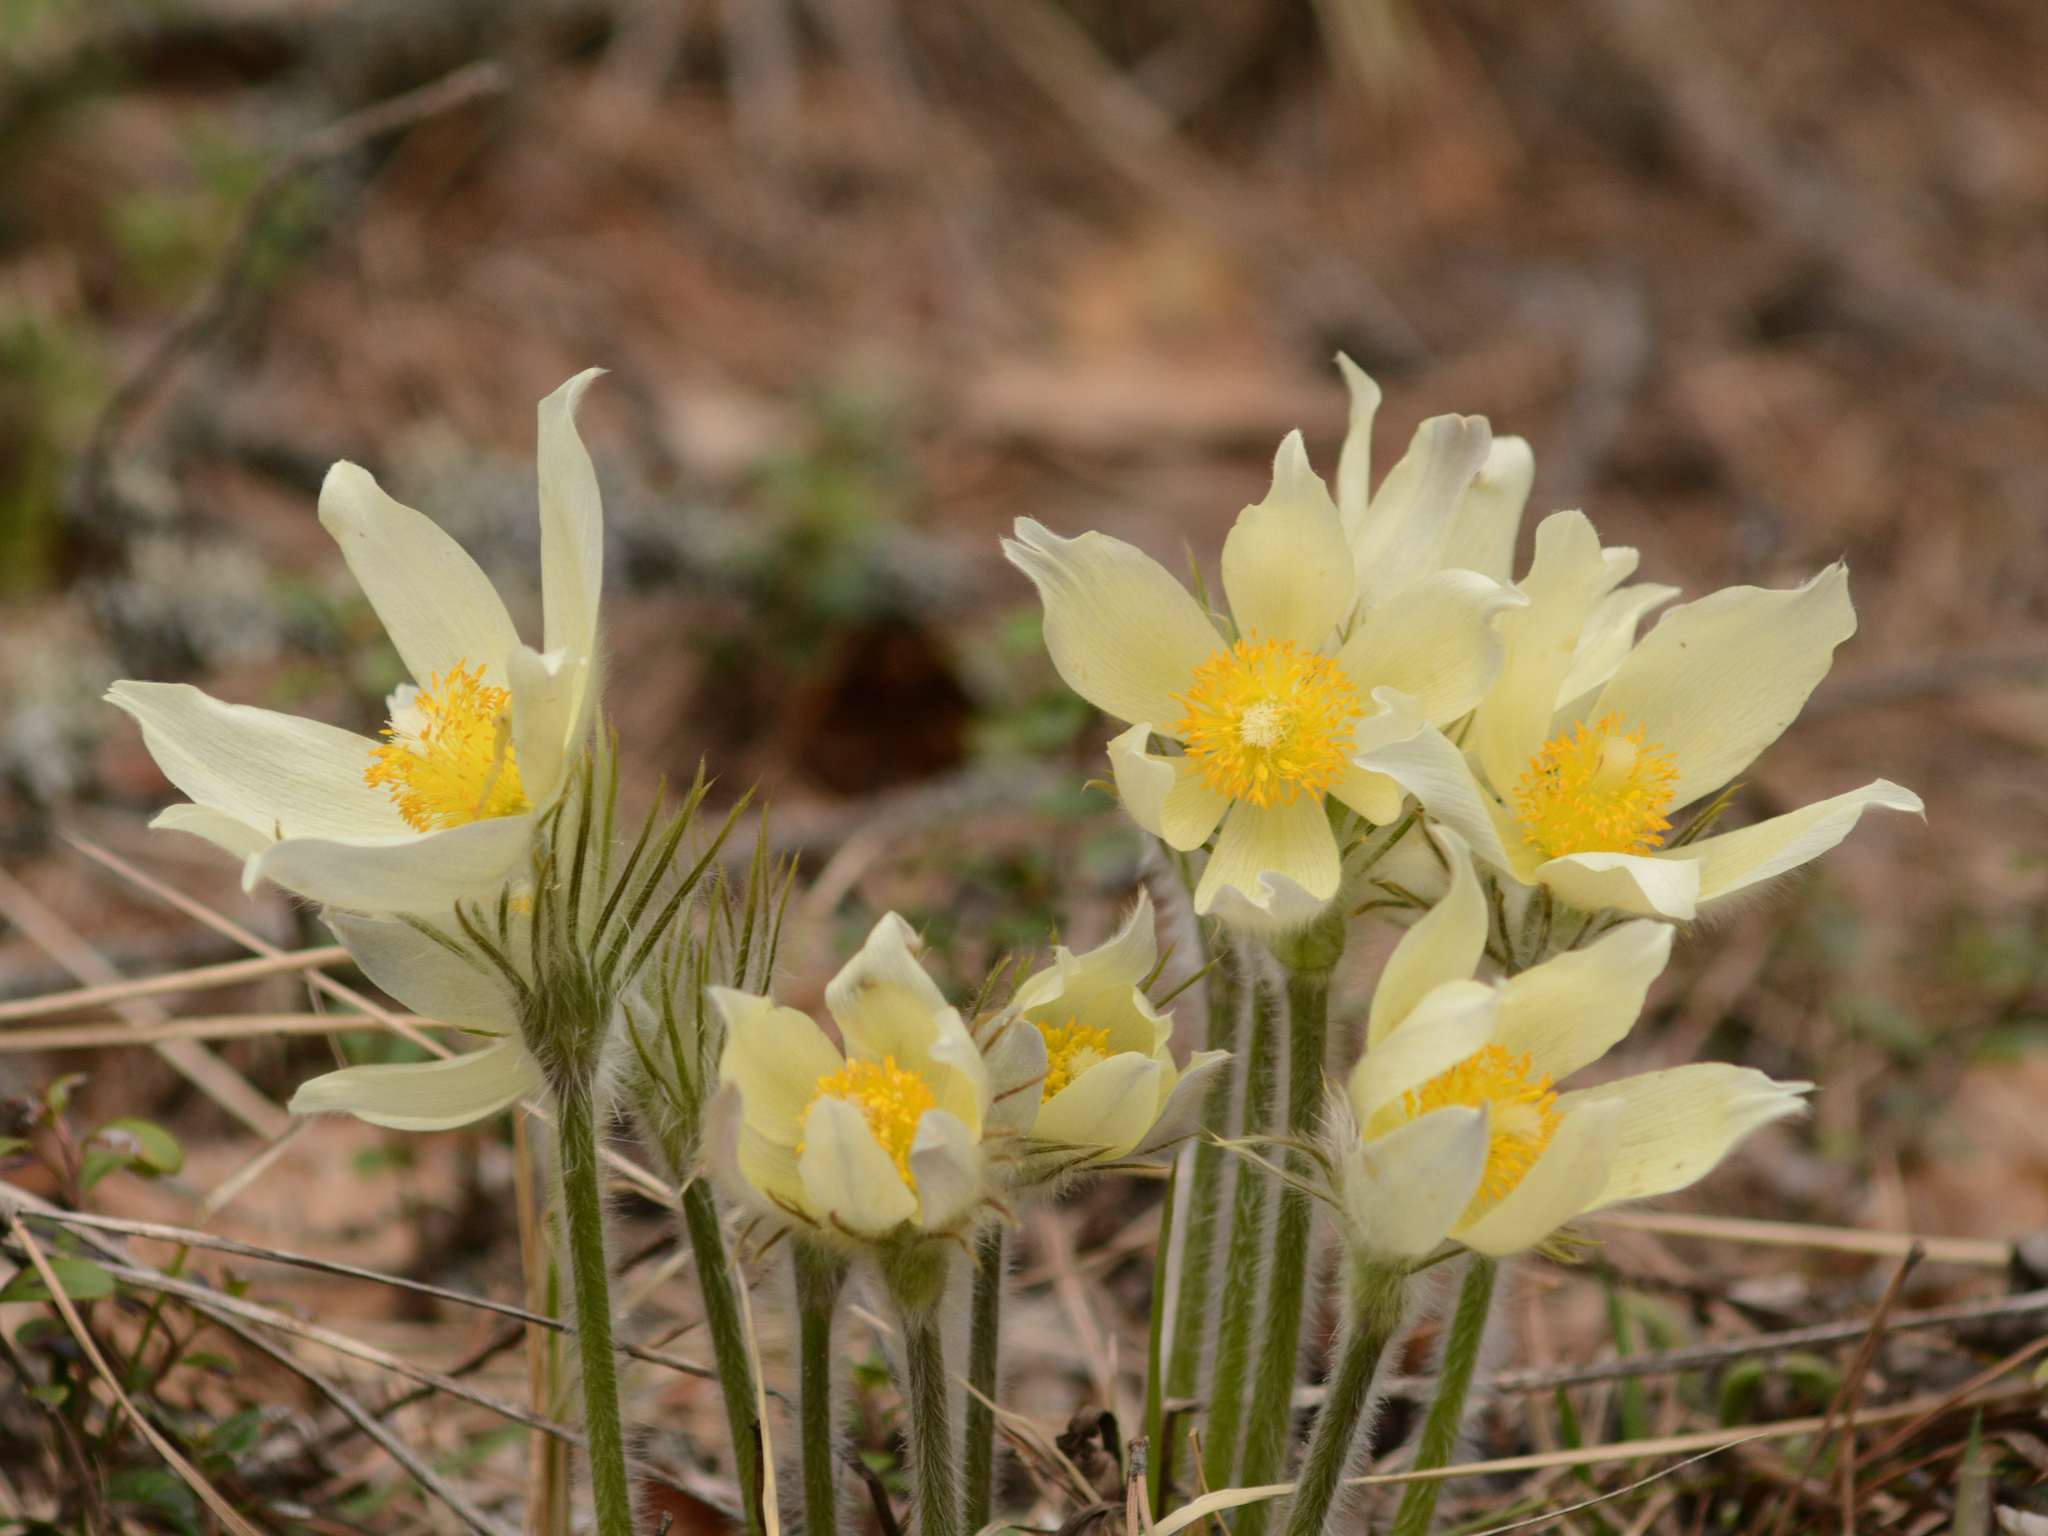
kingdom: Plantae
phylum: Tracheophyta
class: Magnoliopsida
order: Ranunculales
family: Ranunculaceae
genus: Pulsatilla
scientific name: Pulsatilla patens
